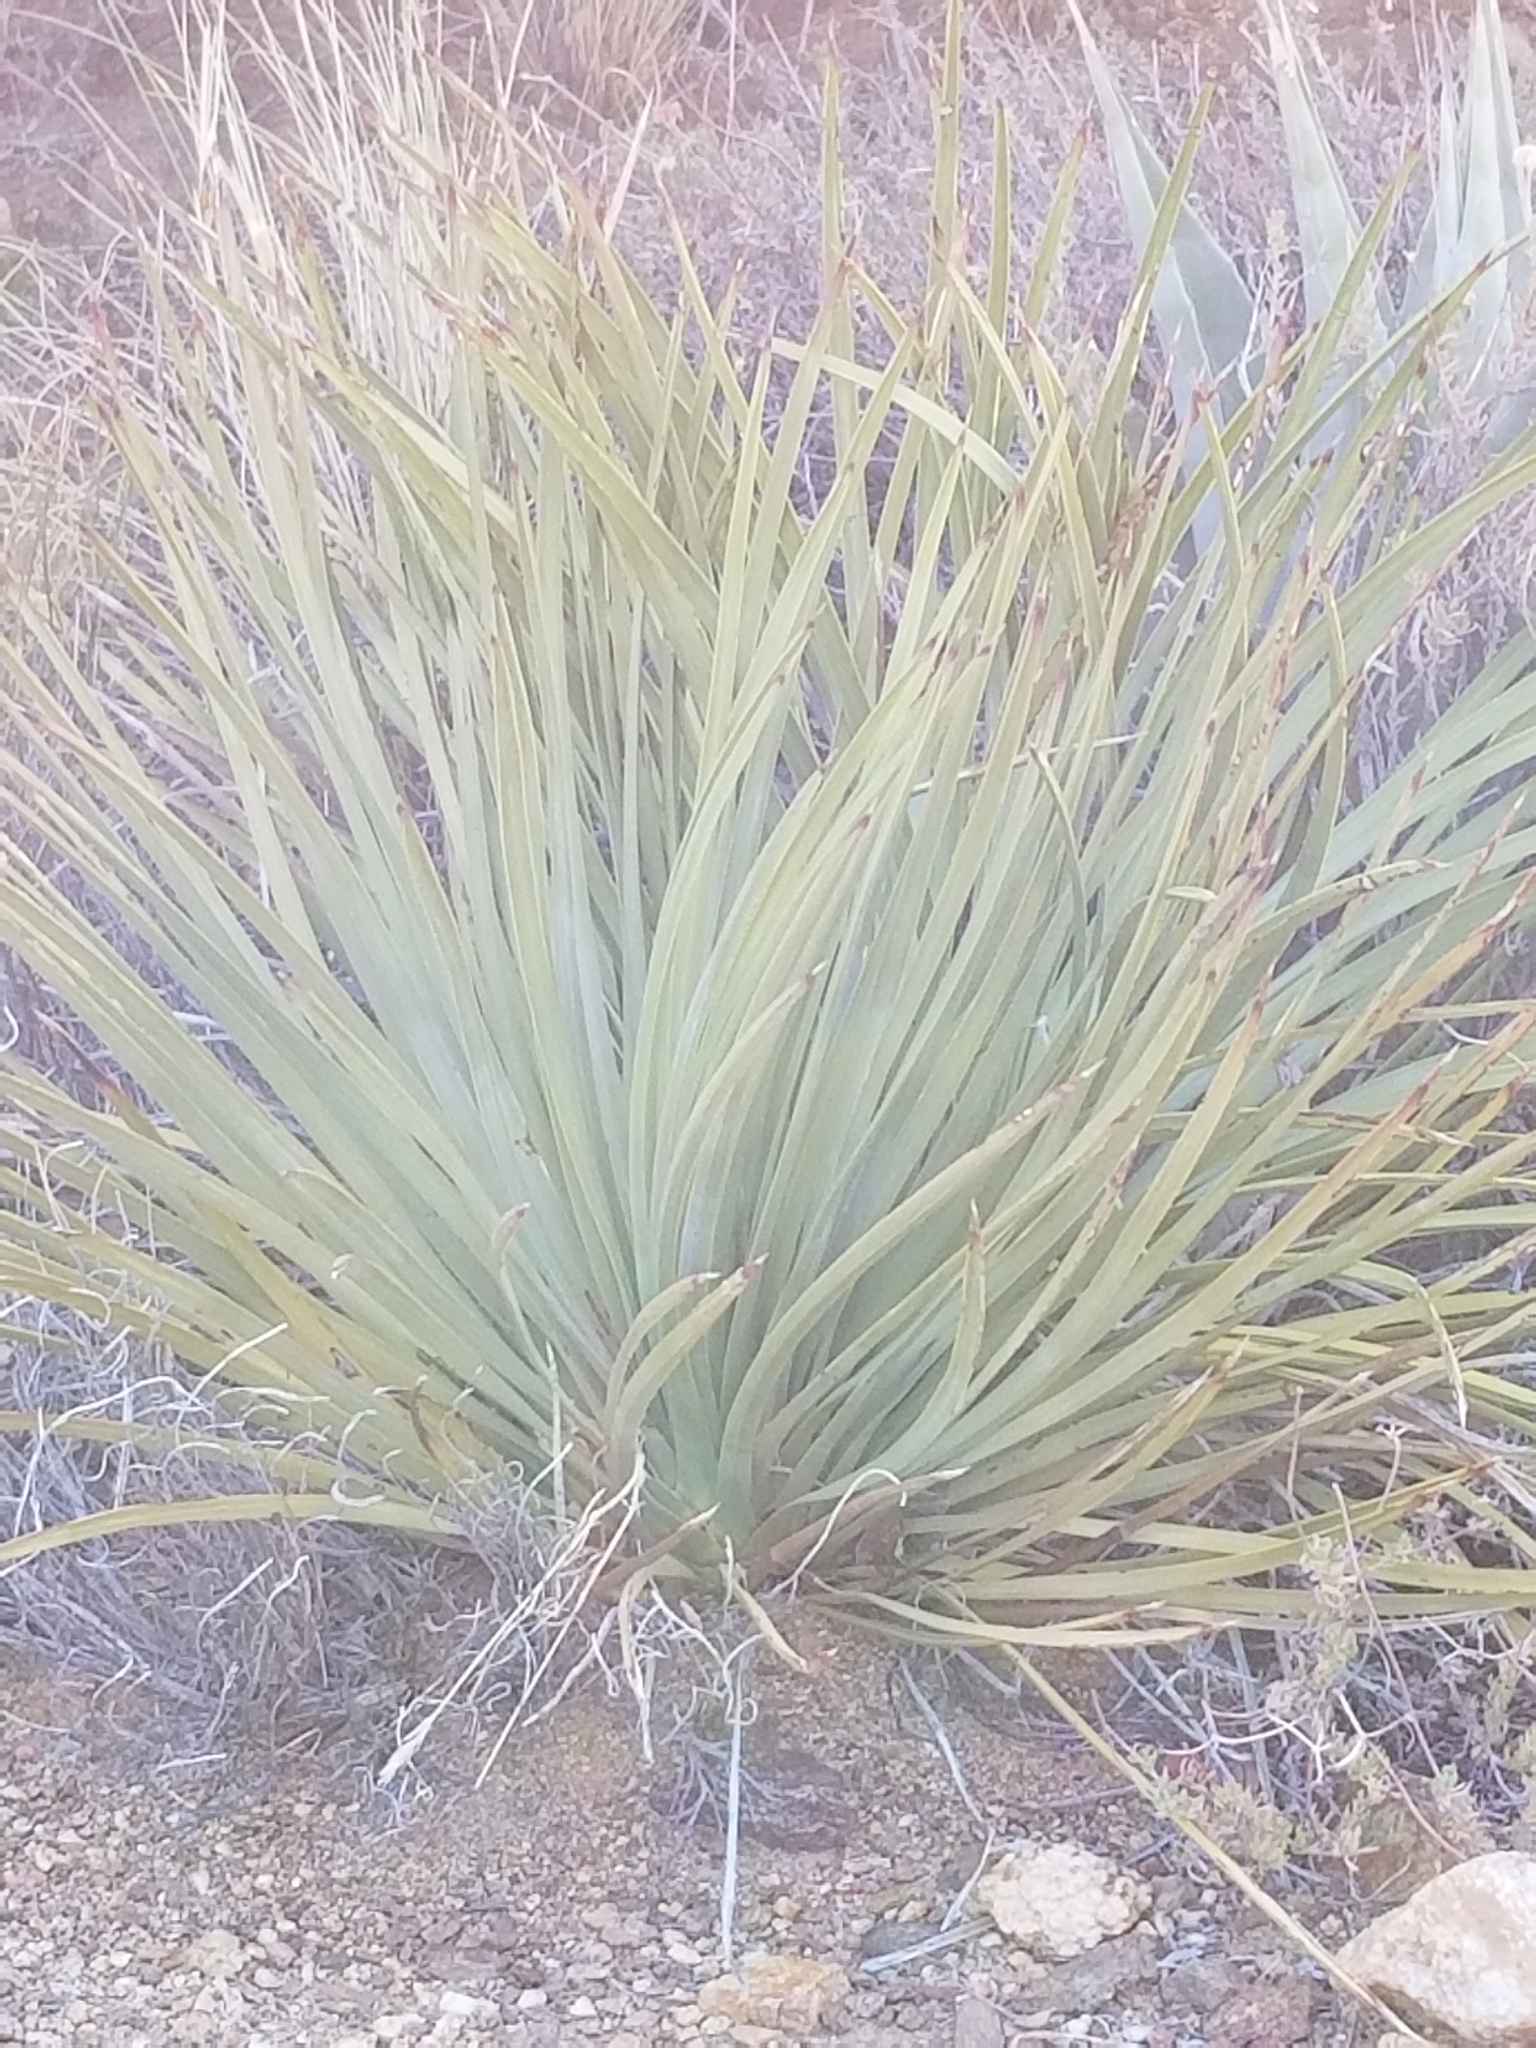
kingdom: Plantae
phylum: Tracheophyta
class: Liliopsida
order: Asparagales
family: Asparagaceae
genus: Hesperoyucca
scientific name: Hesperoyucca whipplei
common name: Our lord's-candle
